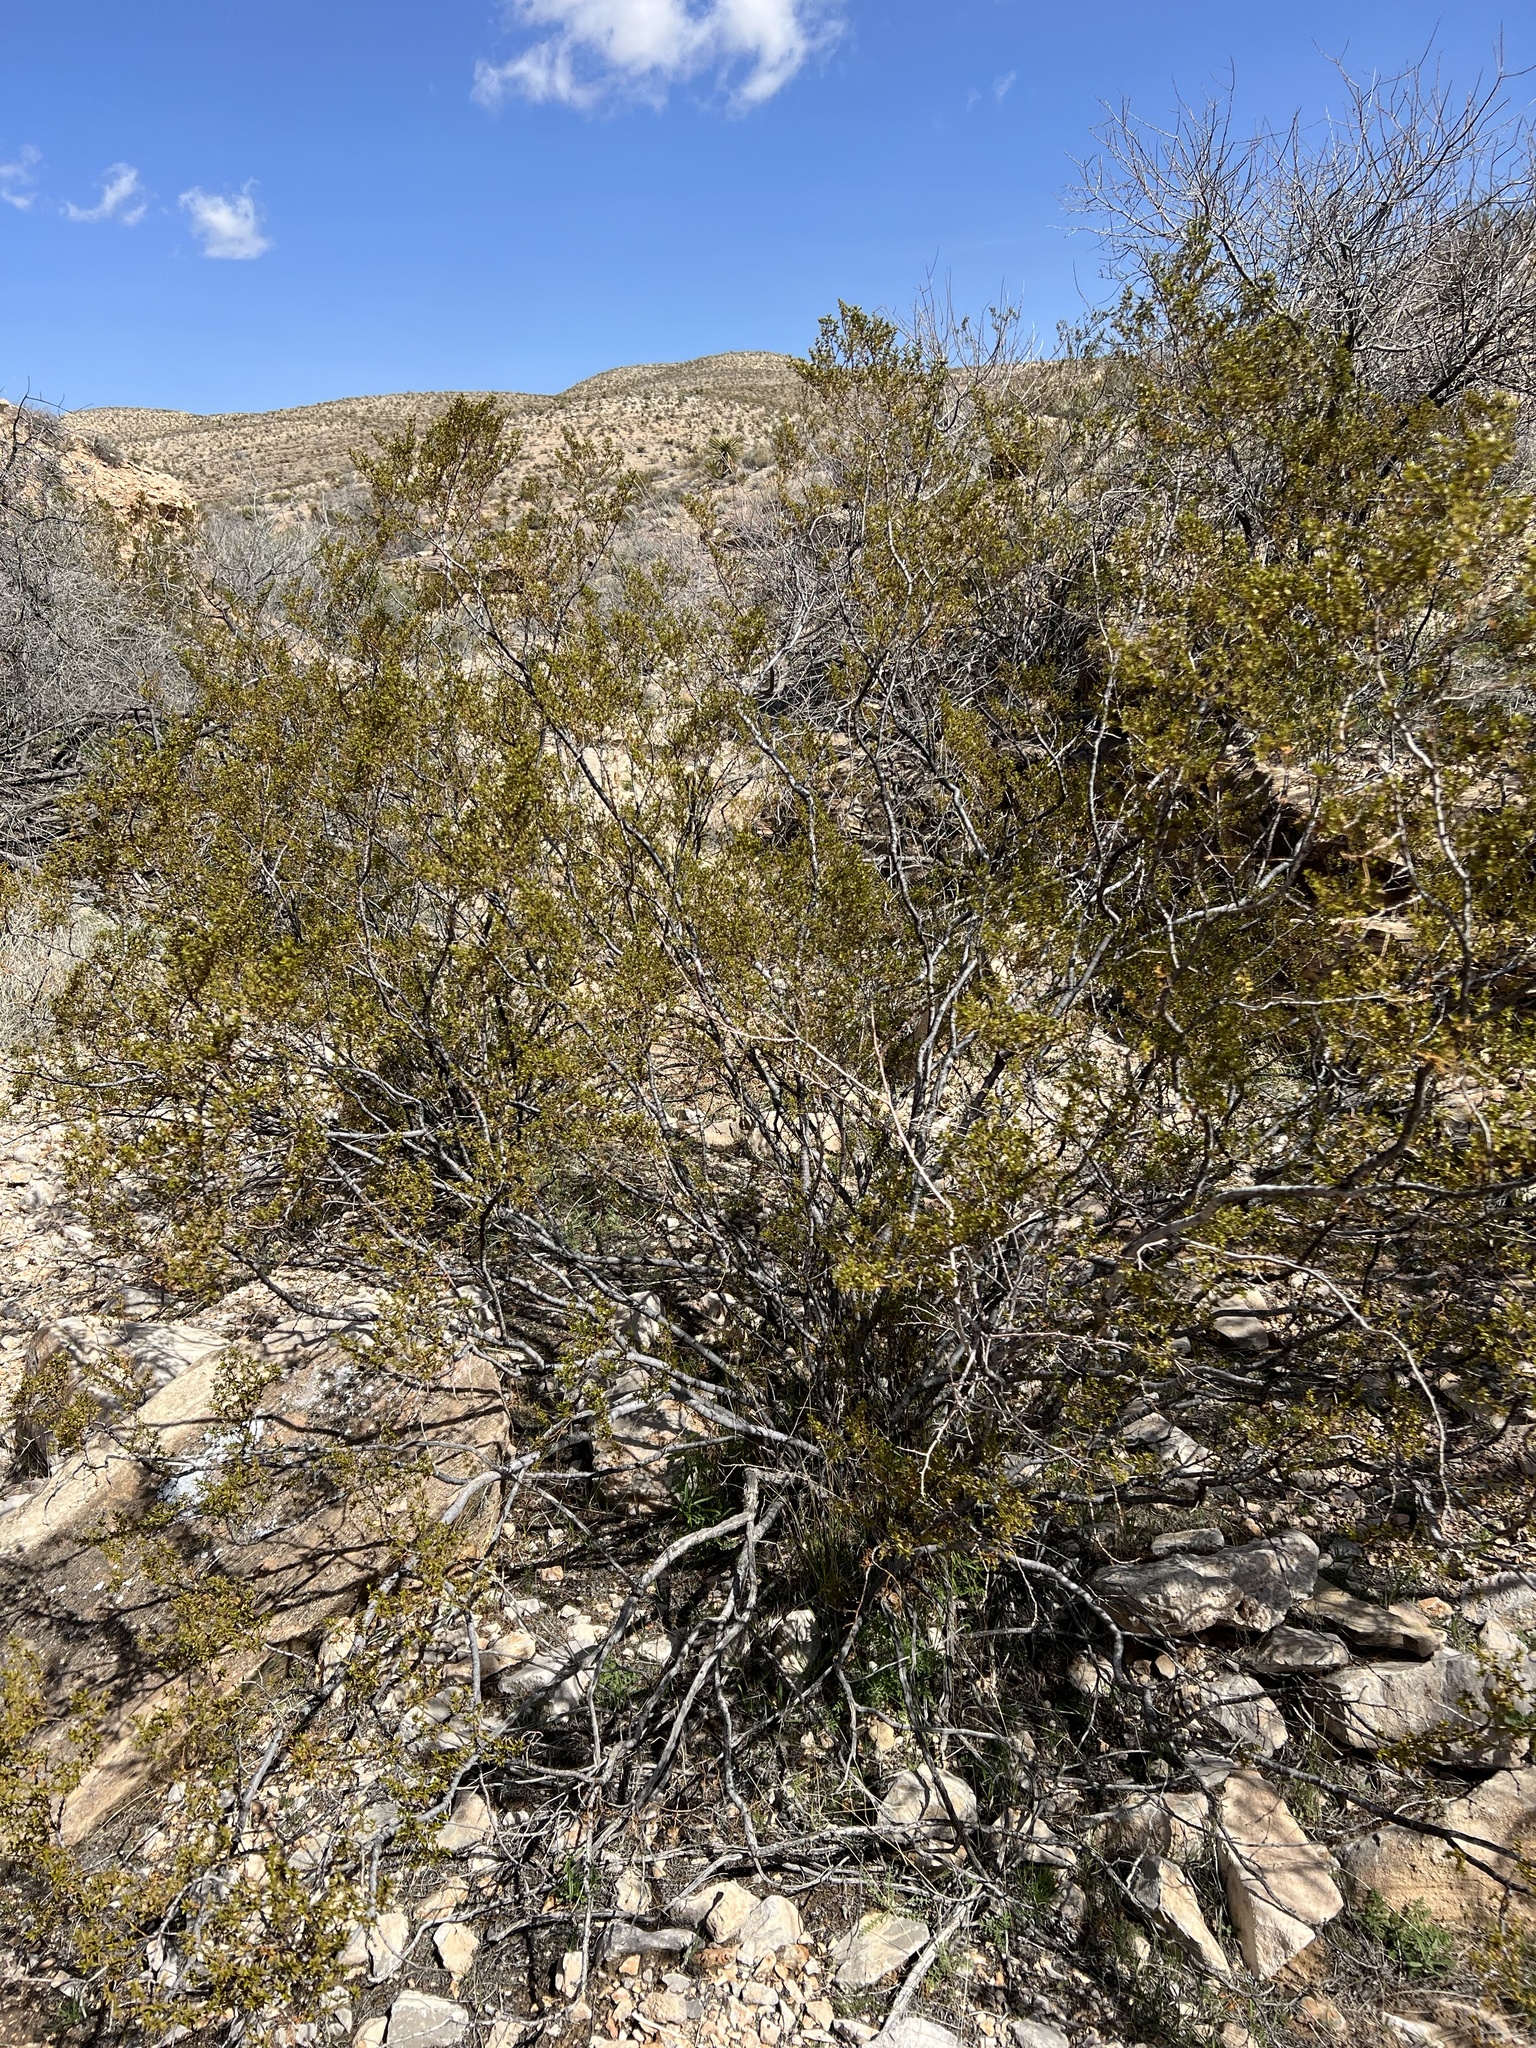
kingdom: Plantae
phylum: Tracheophyta
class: Magnoliopsida
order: Zygophyllales
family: Zygophyllaceae
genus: Larrea
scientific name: Larrea tridentata
